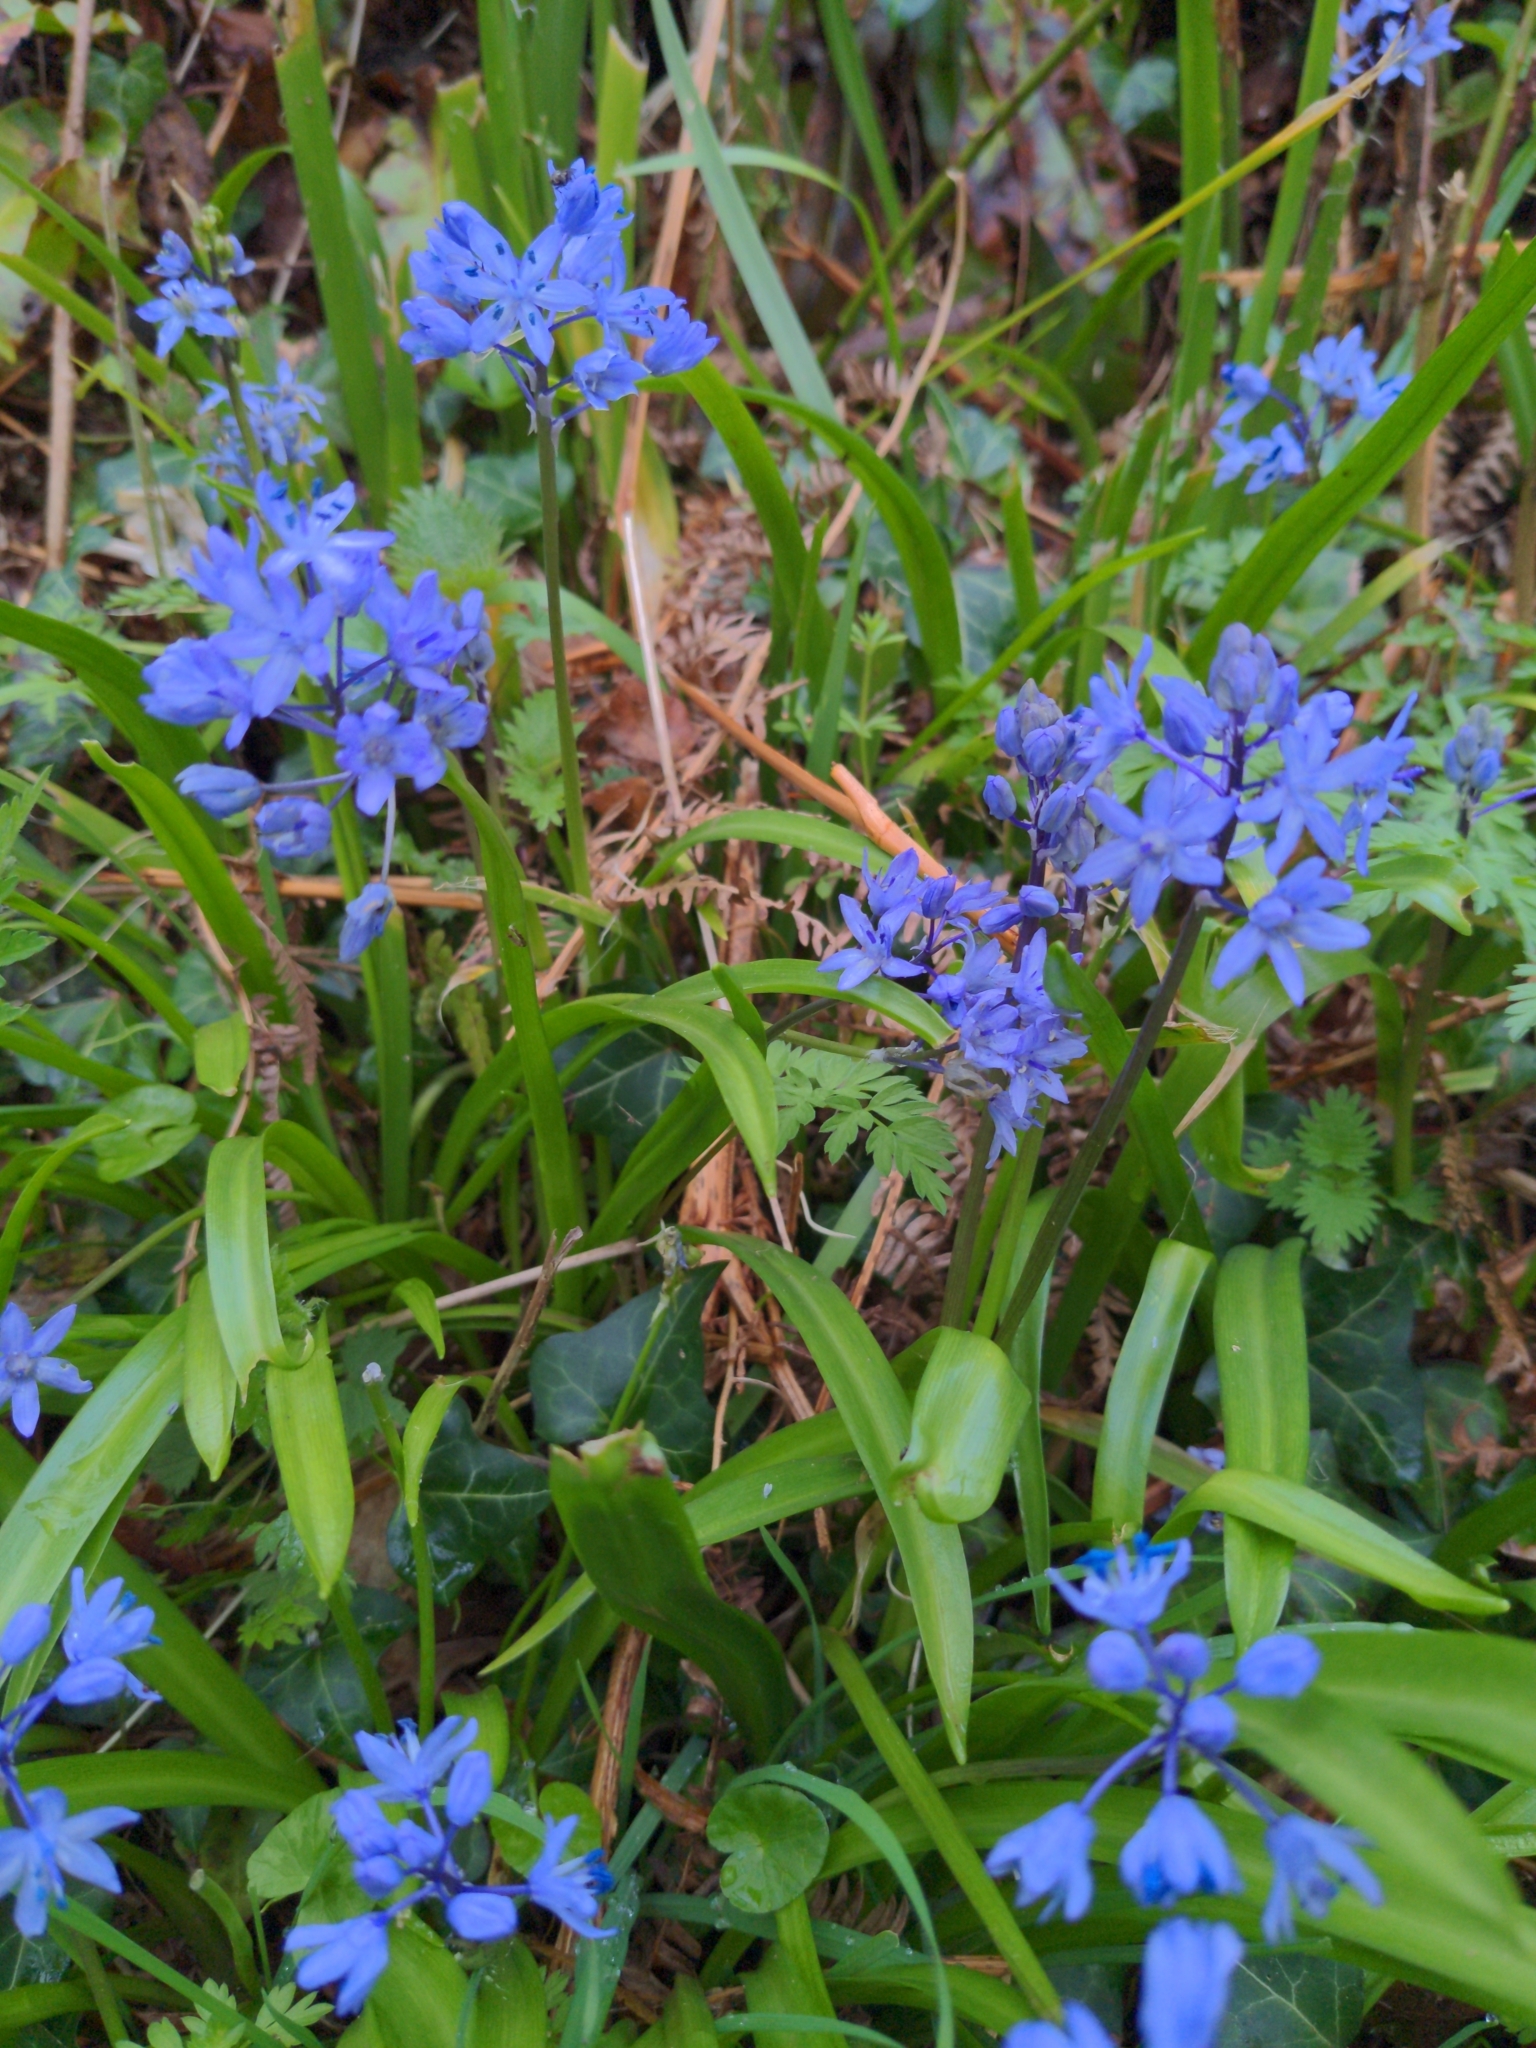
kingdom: Plantae
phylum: Tracheophyta
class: Liliopsida
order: Asparagales
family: Asparagaceae
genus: Scilla
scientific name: Scilla bithynica
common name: Turkish squill
